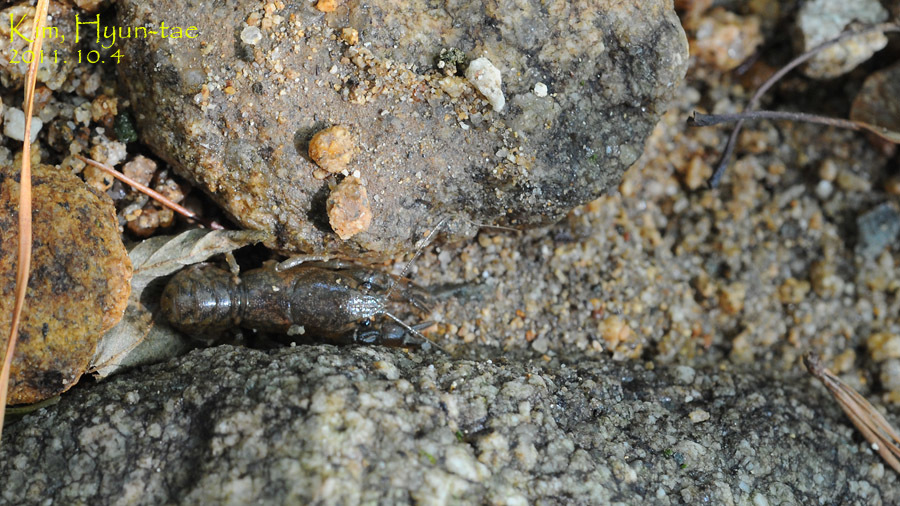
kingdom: Animalia
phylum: Arthropoda
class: Malacostraca
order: Decapoda
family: Cambaroididae
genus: Cambaroides
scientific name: Cambaroides similis
